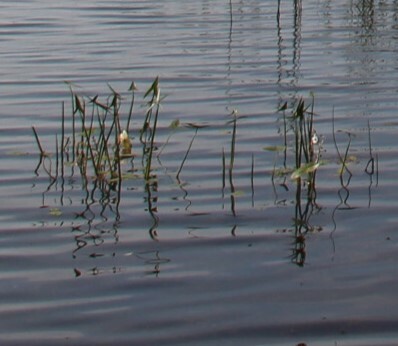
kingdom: Plantae
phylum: Tracheophyta
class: Liliopsida
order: Alismatales
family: Alismataceae
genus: Sagittaria
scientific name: Sagittaria sagittifolia
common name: Arrowhead
